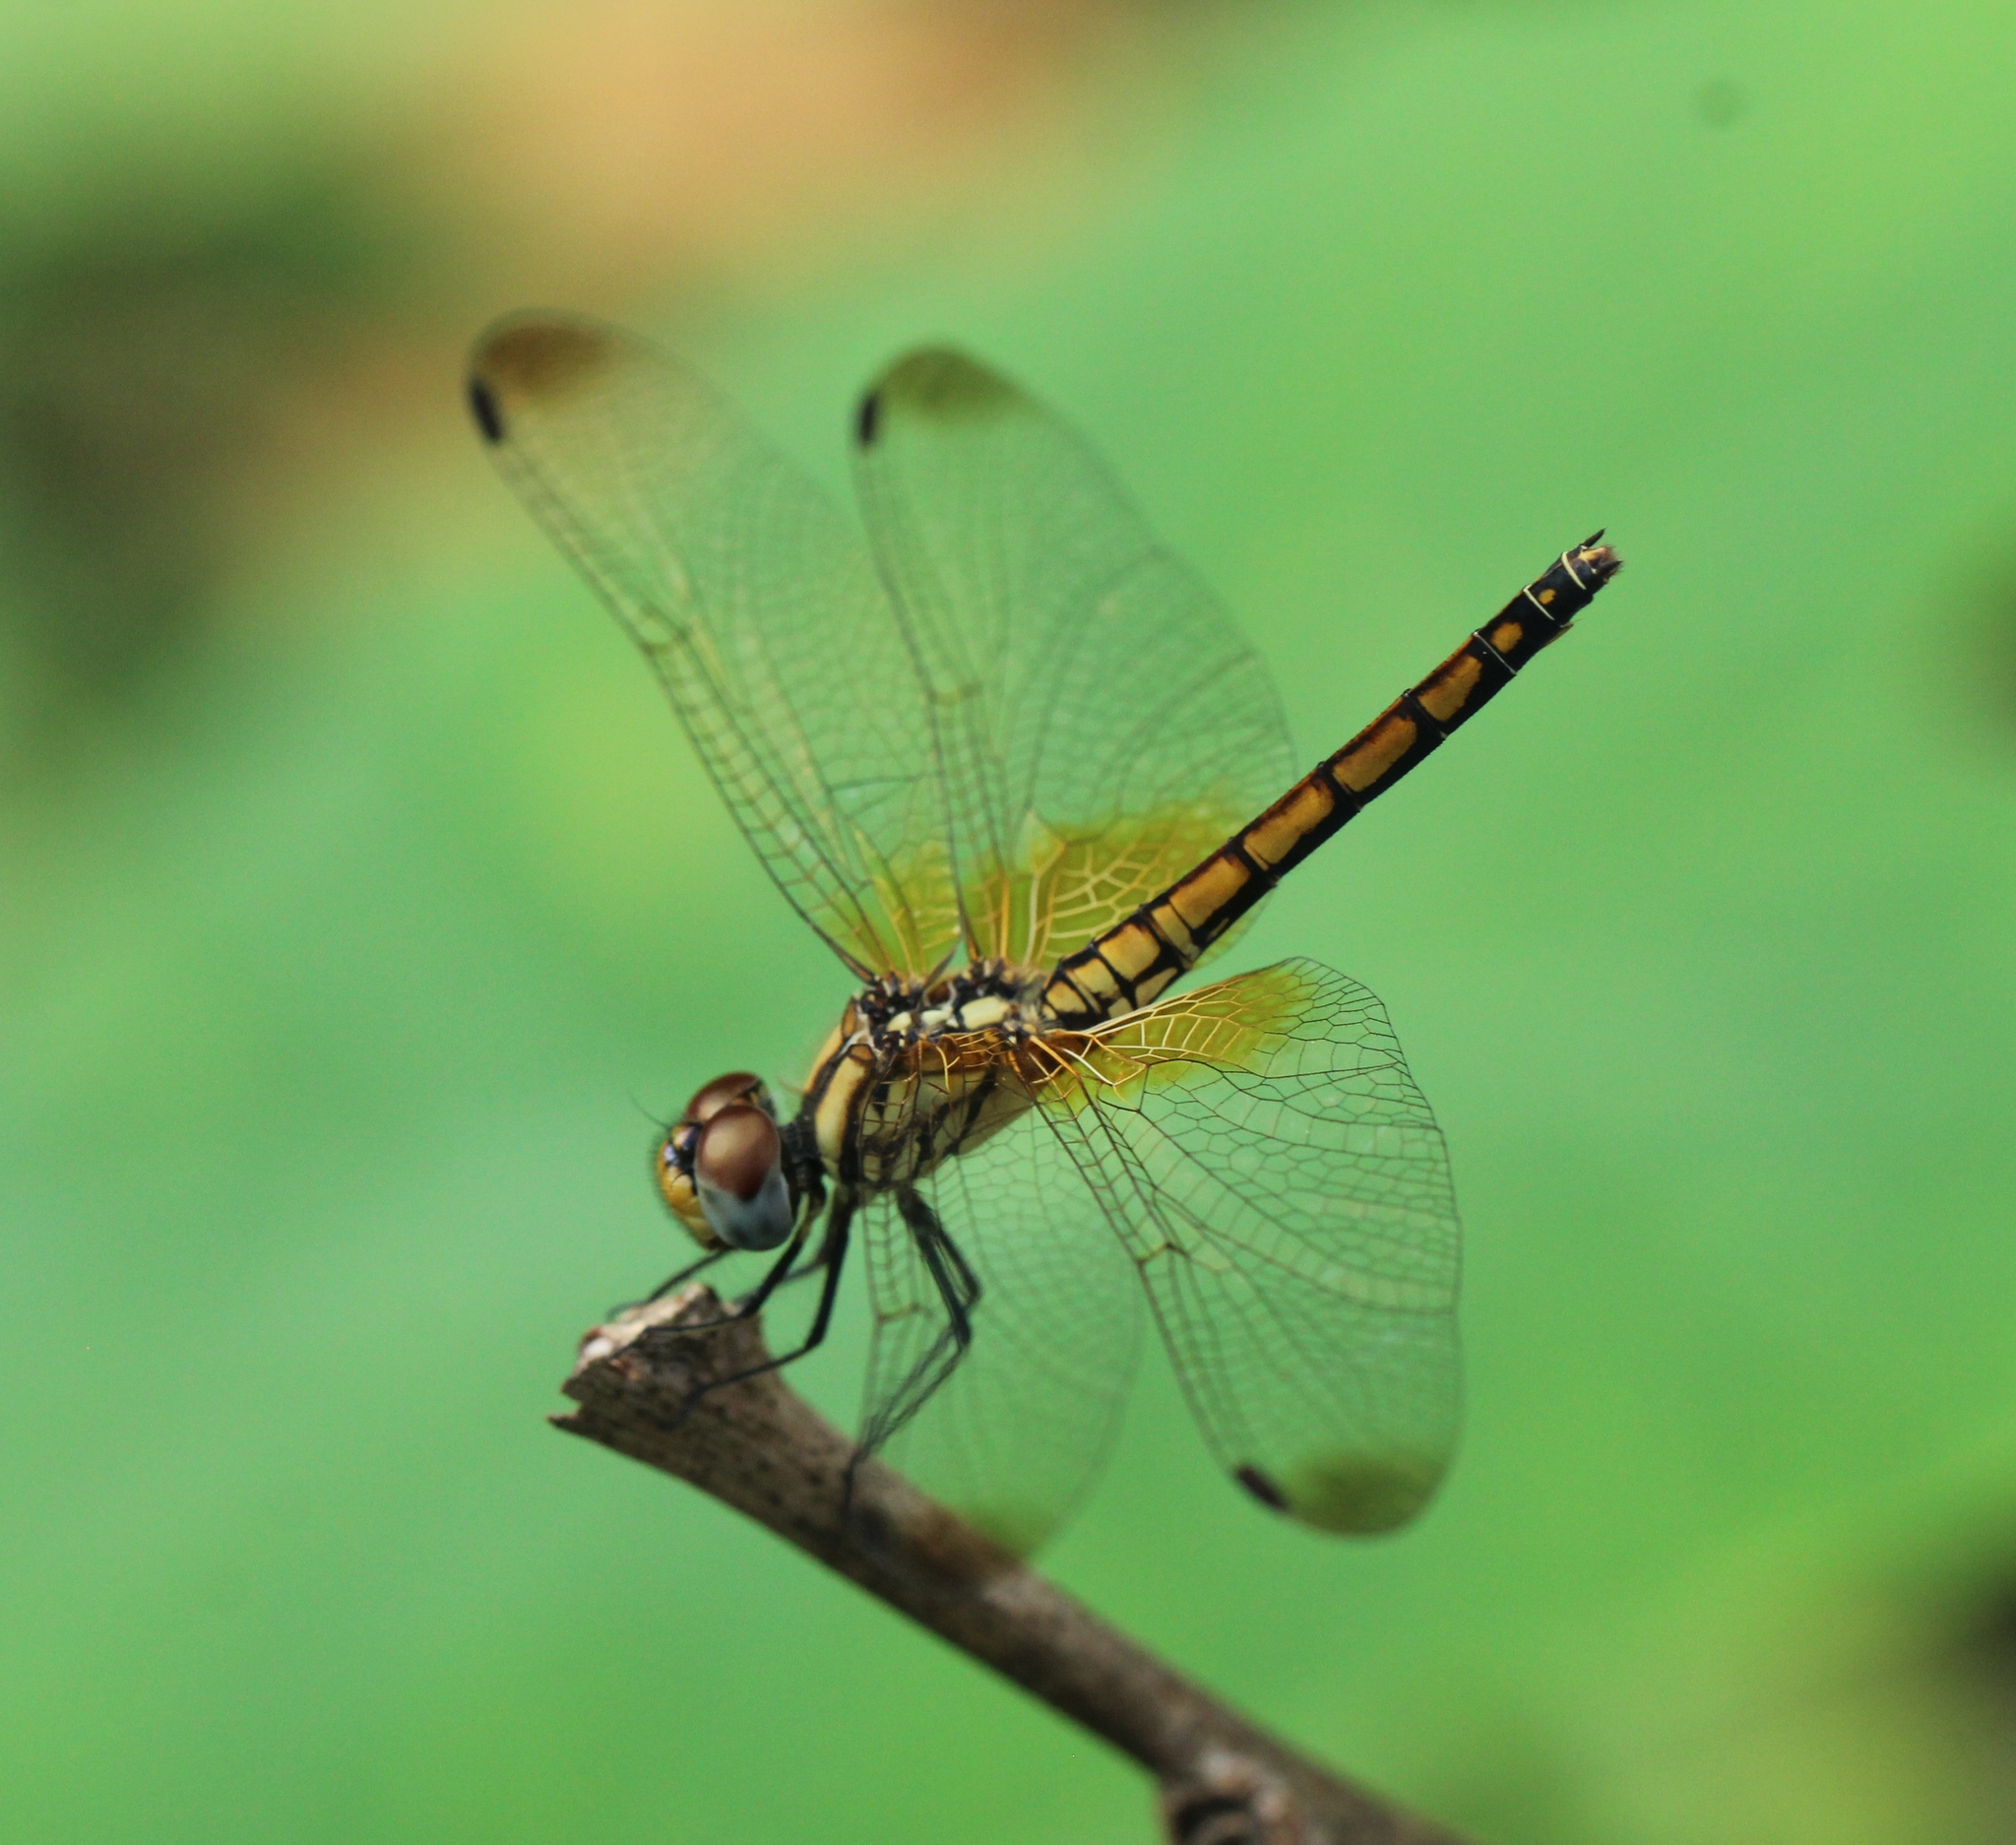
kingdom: Animalia
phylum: Arthropoda
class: Insecta
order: Odonata
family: Libellulidae
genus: Trithemis
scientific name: Trithemis aurora
